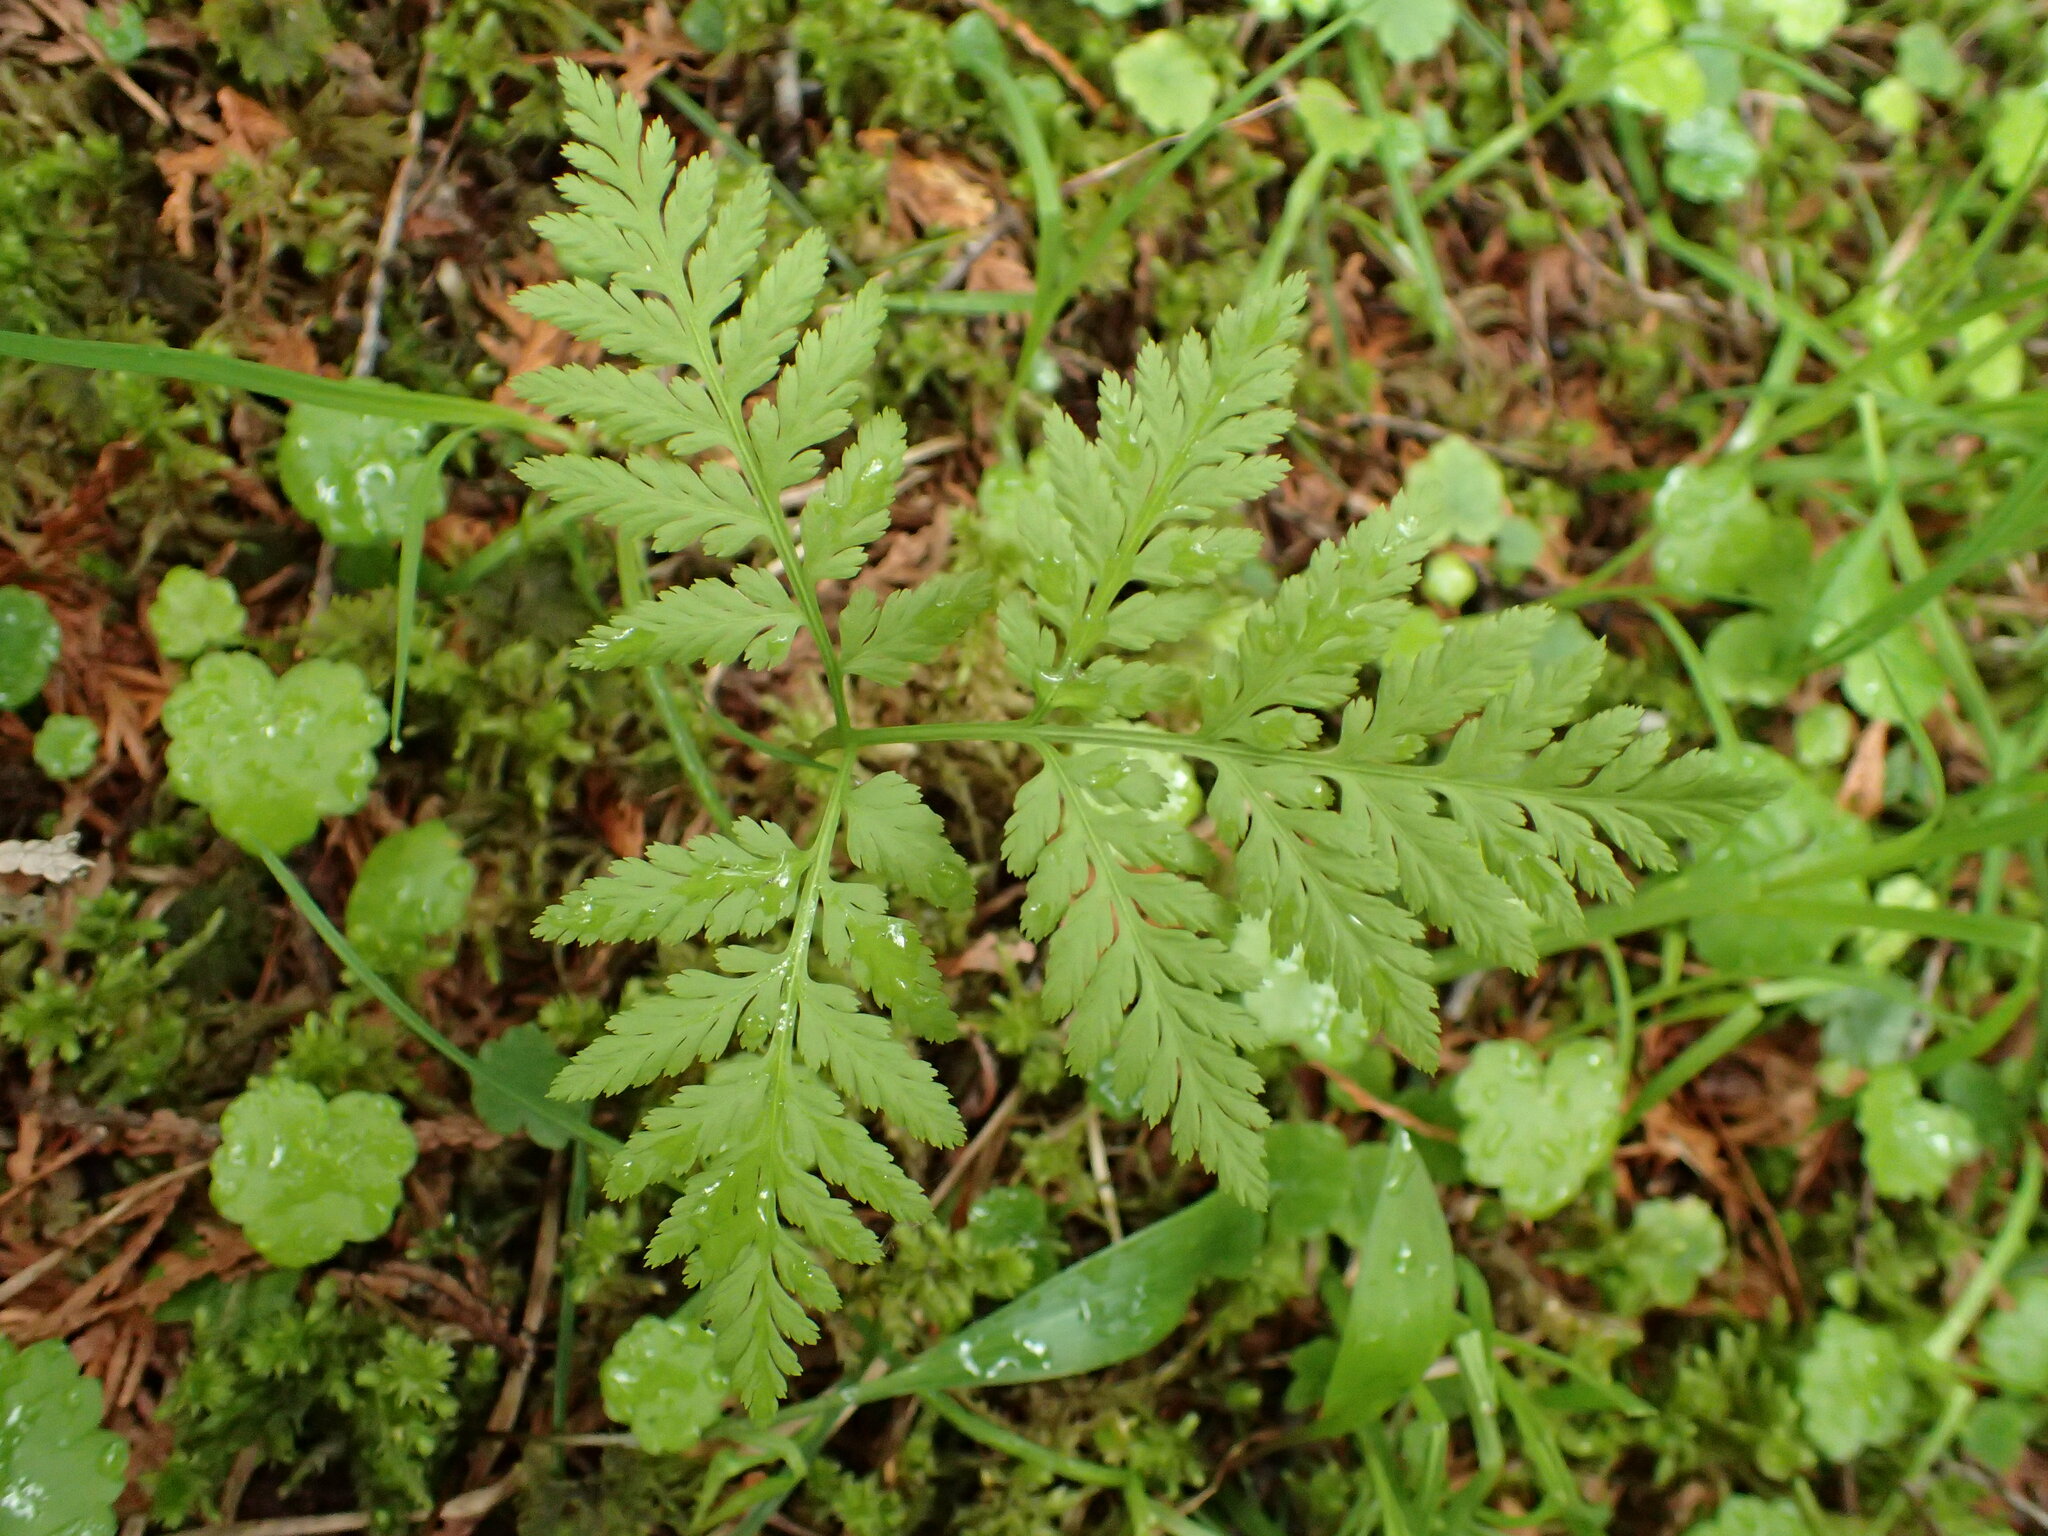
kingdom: Plantae
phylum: Tracheophyta
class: Polypodiopsida
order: Ophioglossales
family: Ophioglossaceae
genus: Botrypus
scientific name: Botrypus virginianus
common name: Common grapefern
